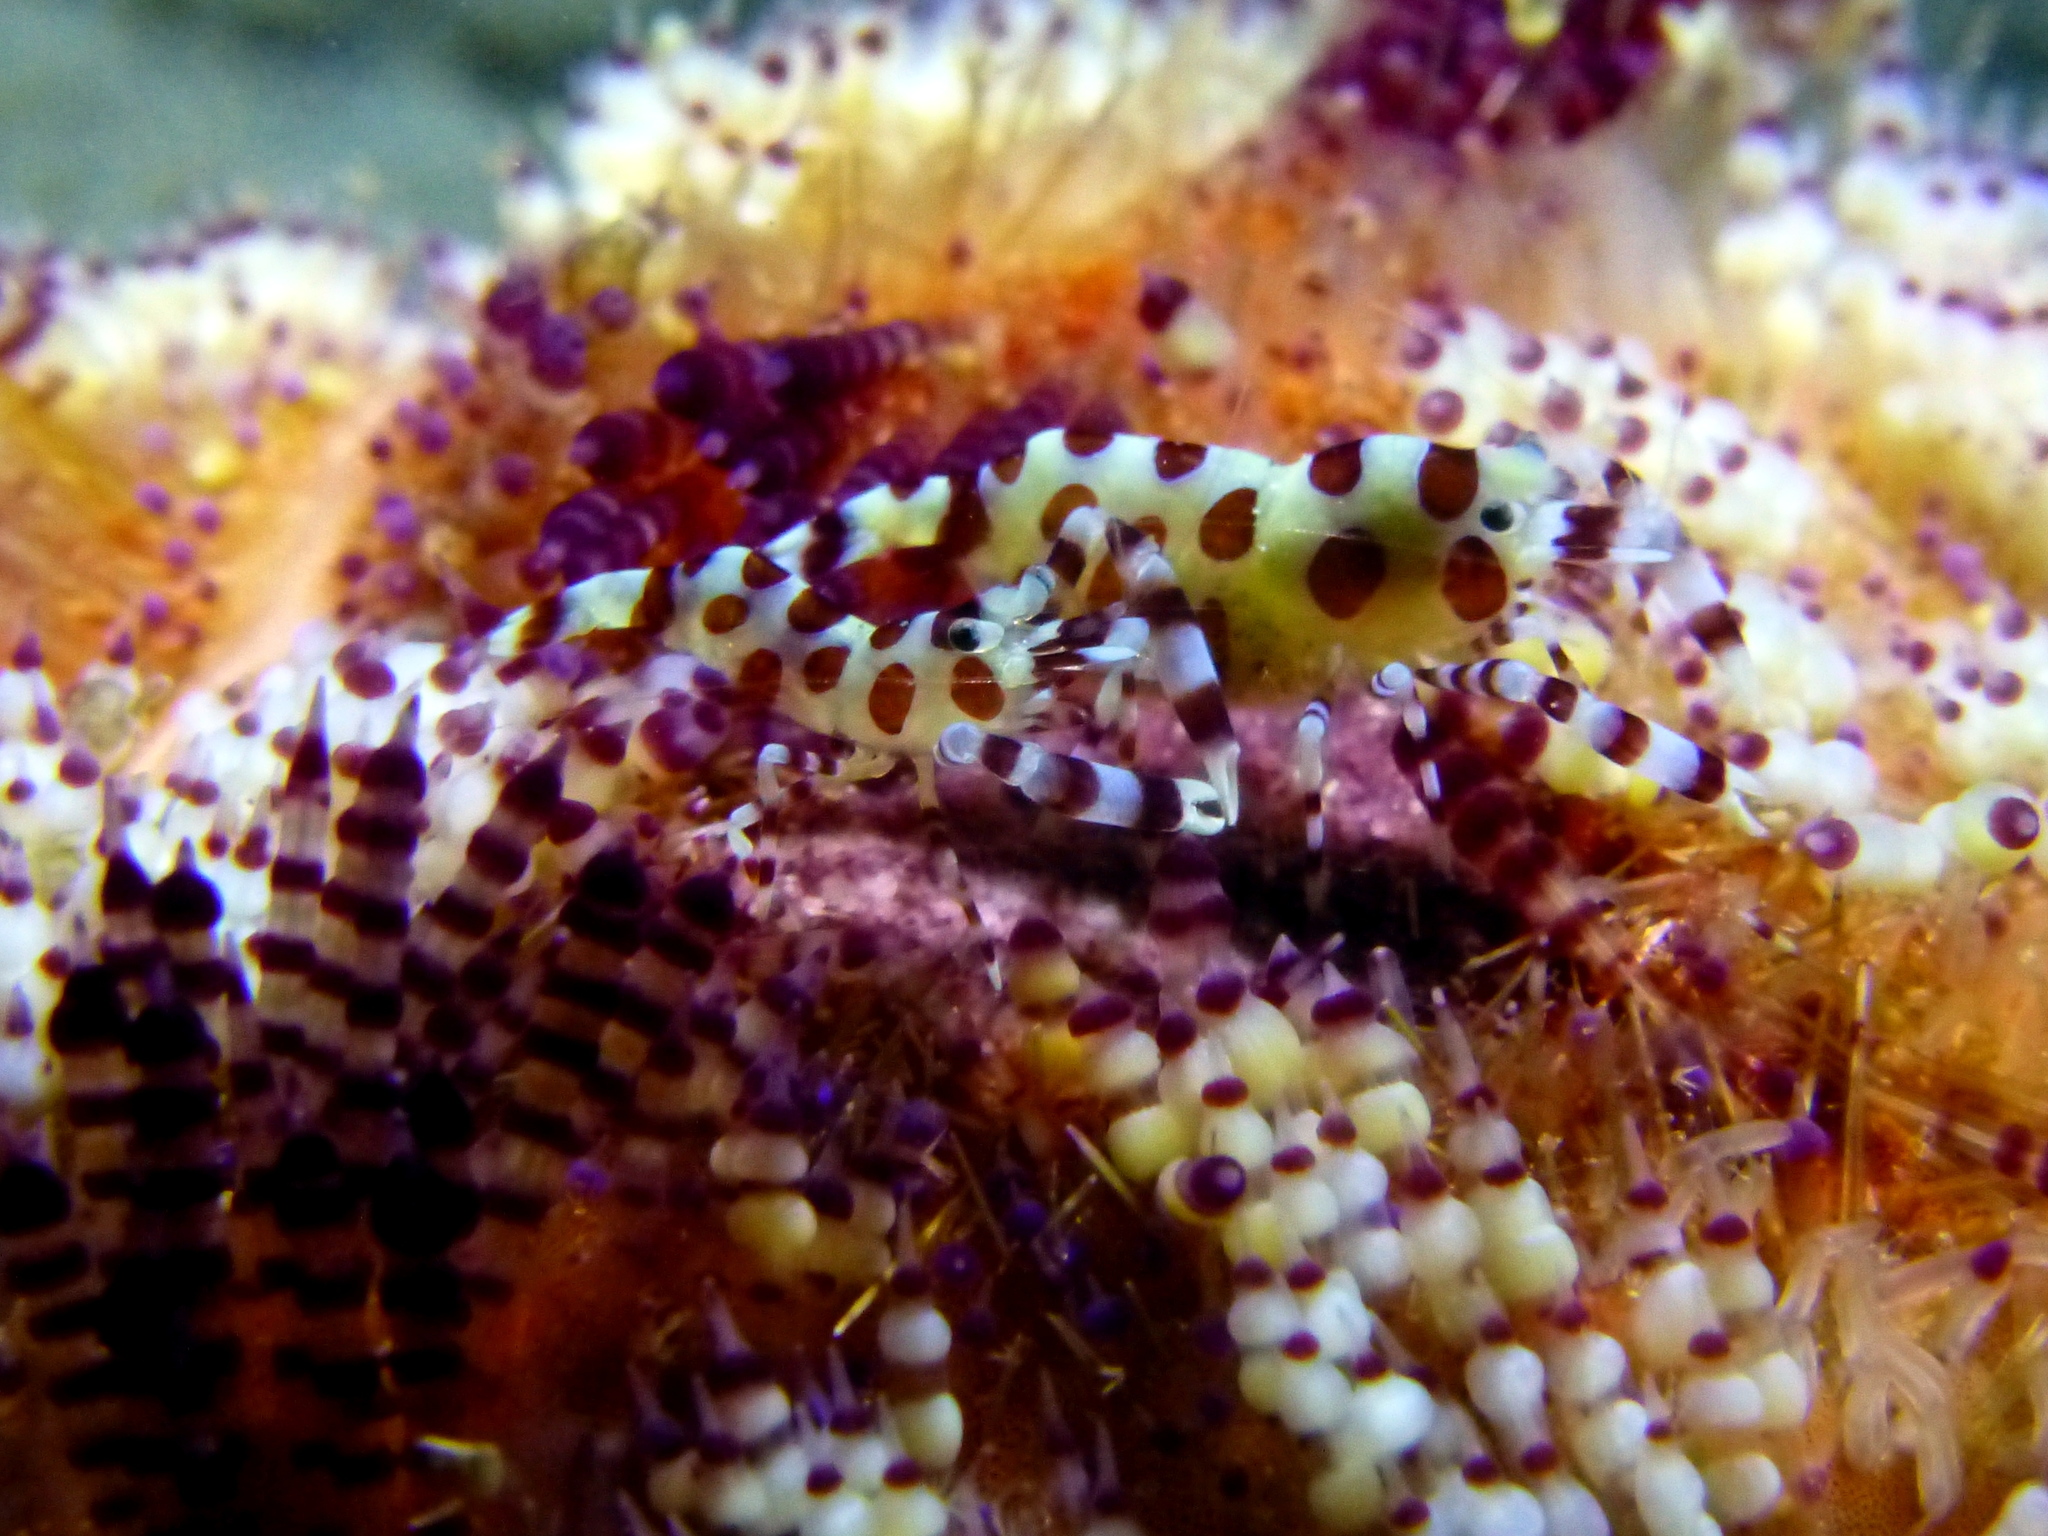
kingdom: Animalia
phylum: Arthropoda
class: Malacostraca
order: Decapoda
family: Palaemonidae
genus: Periclimenes
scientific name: Periclimenes colemani
